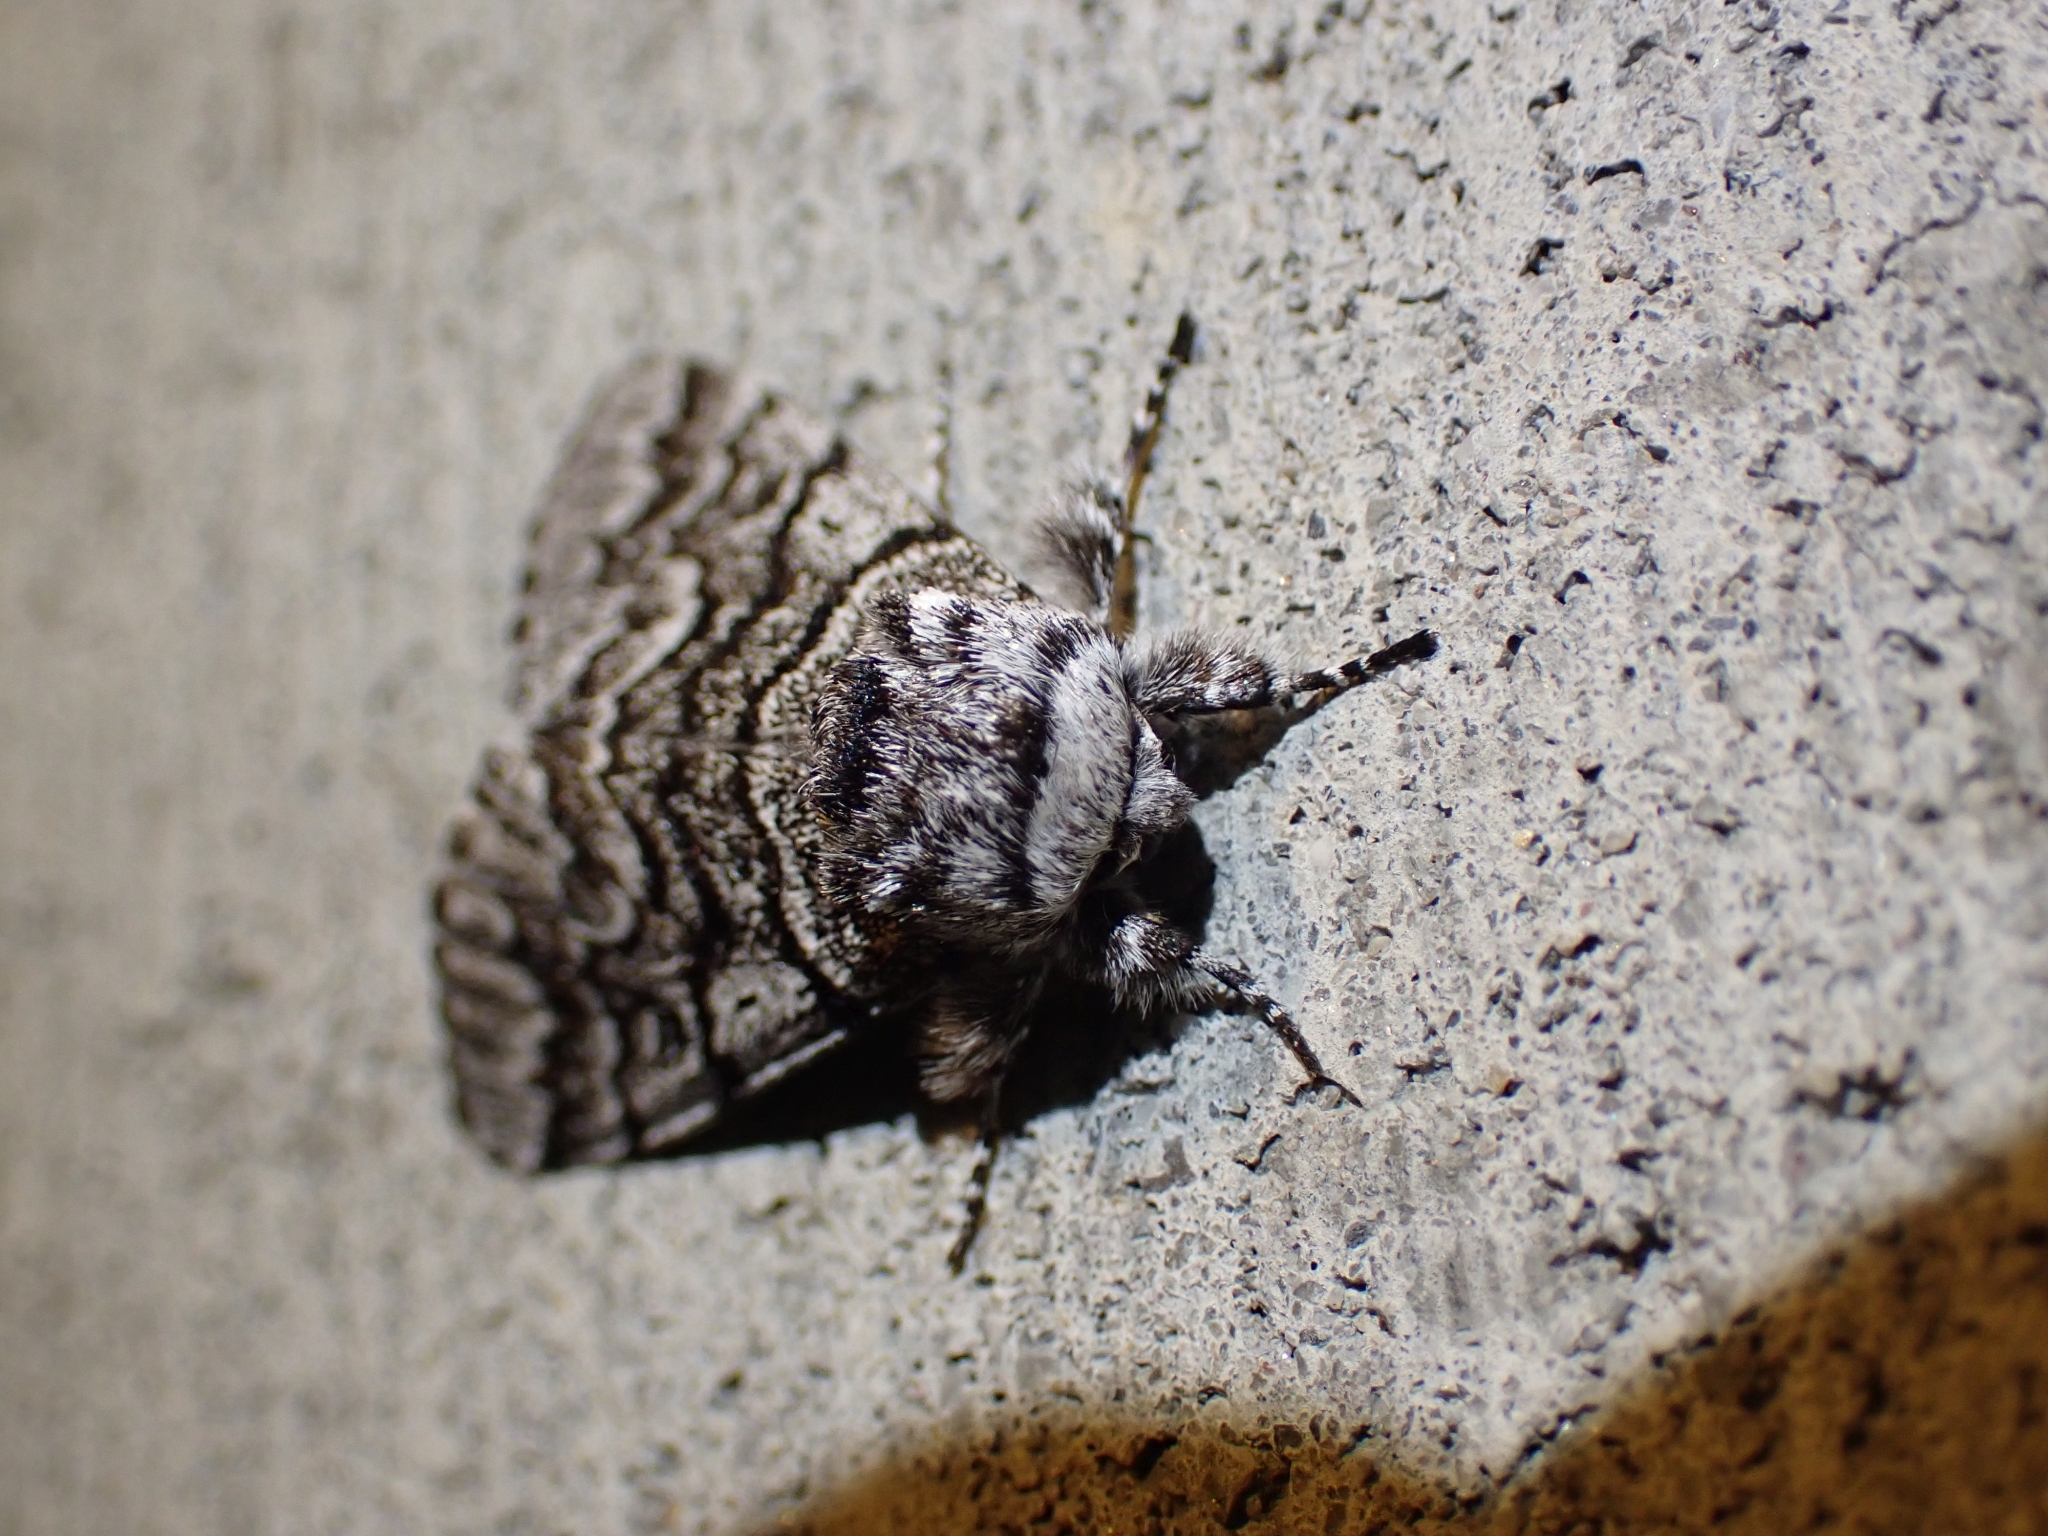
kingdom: Animalia
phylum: Arthropoda
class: Insecta
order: Lepidoptera
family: Noctuidae
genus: Panthea
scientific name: Panthea virginarius
